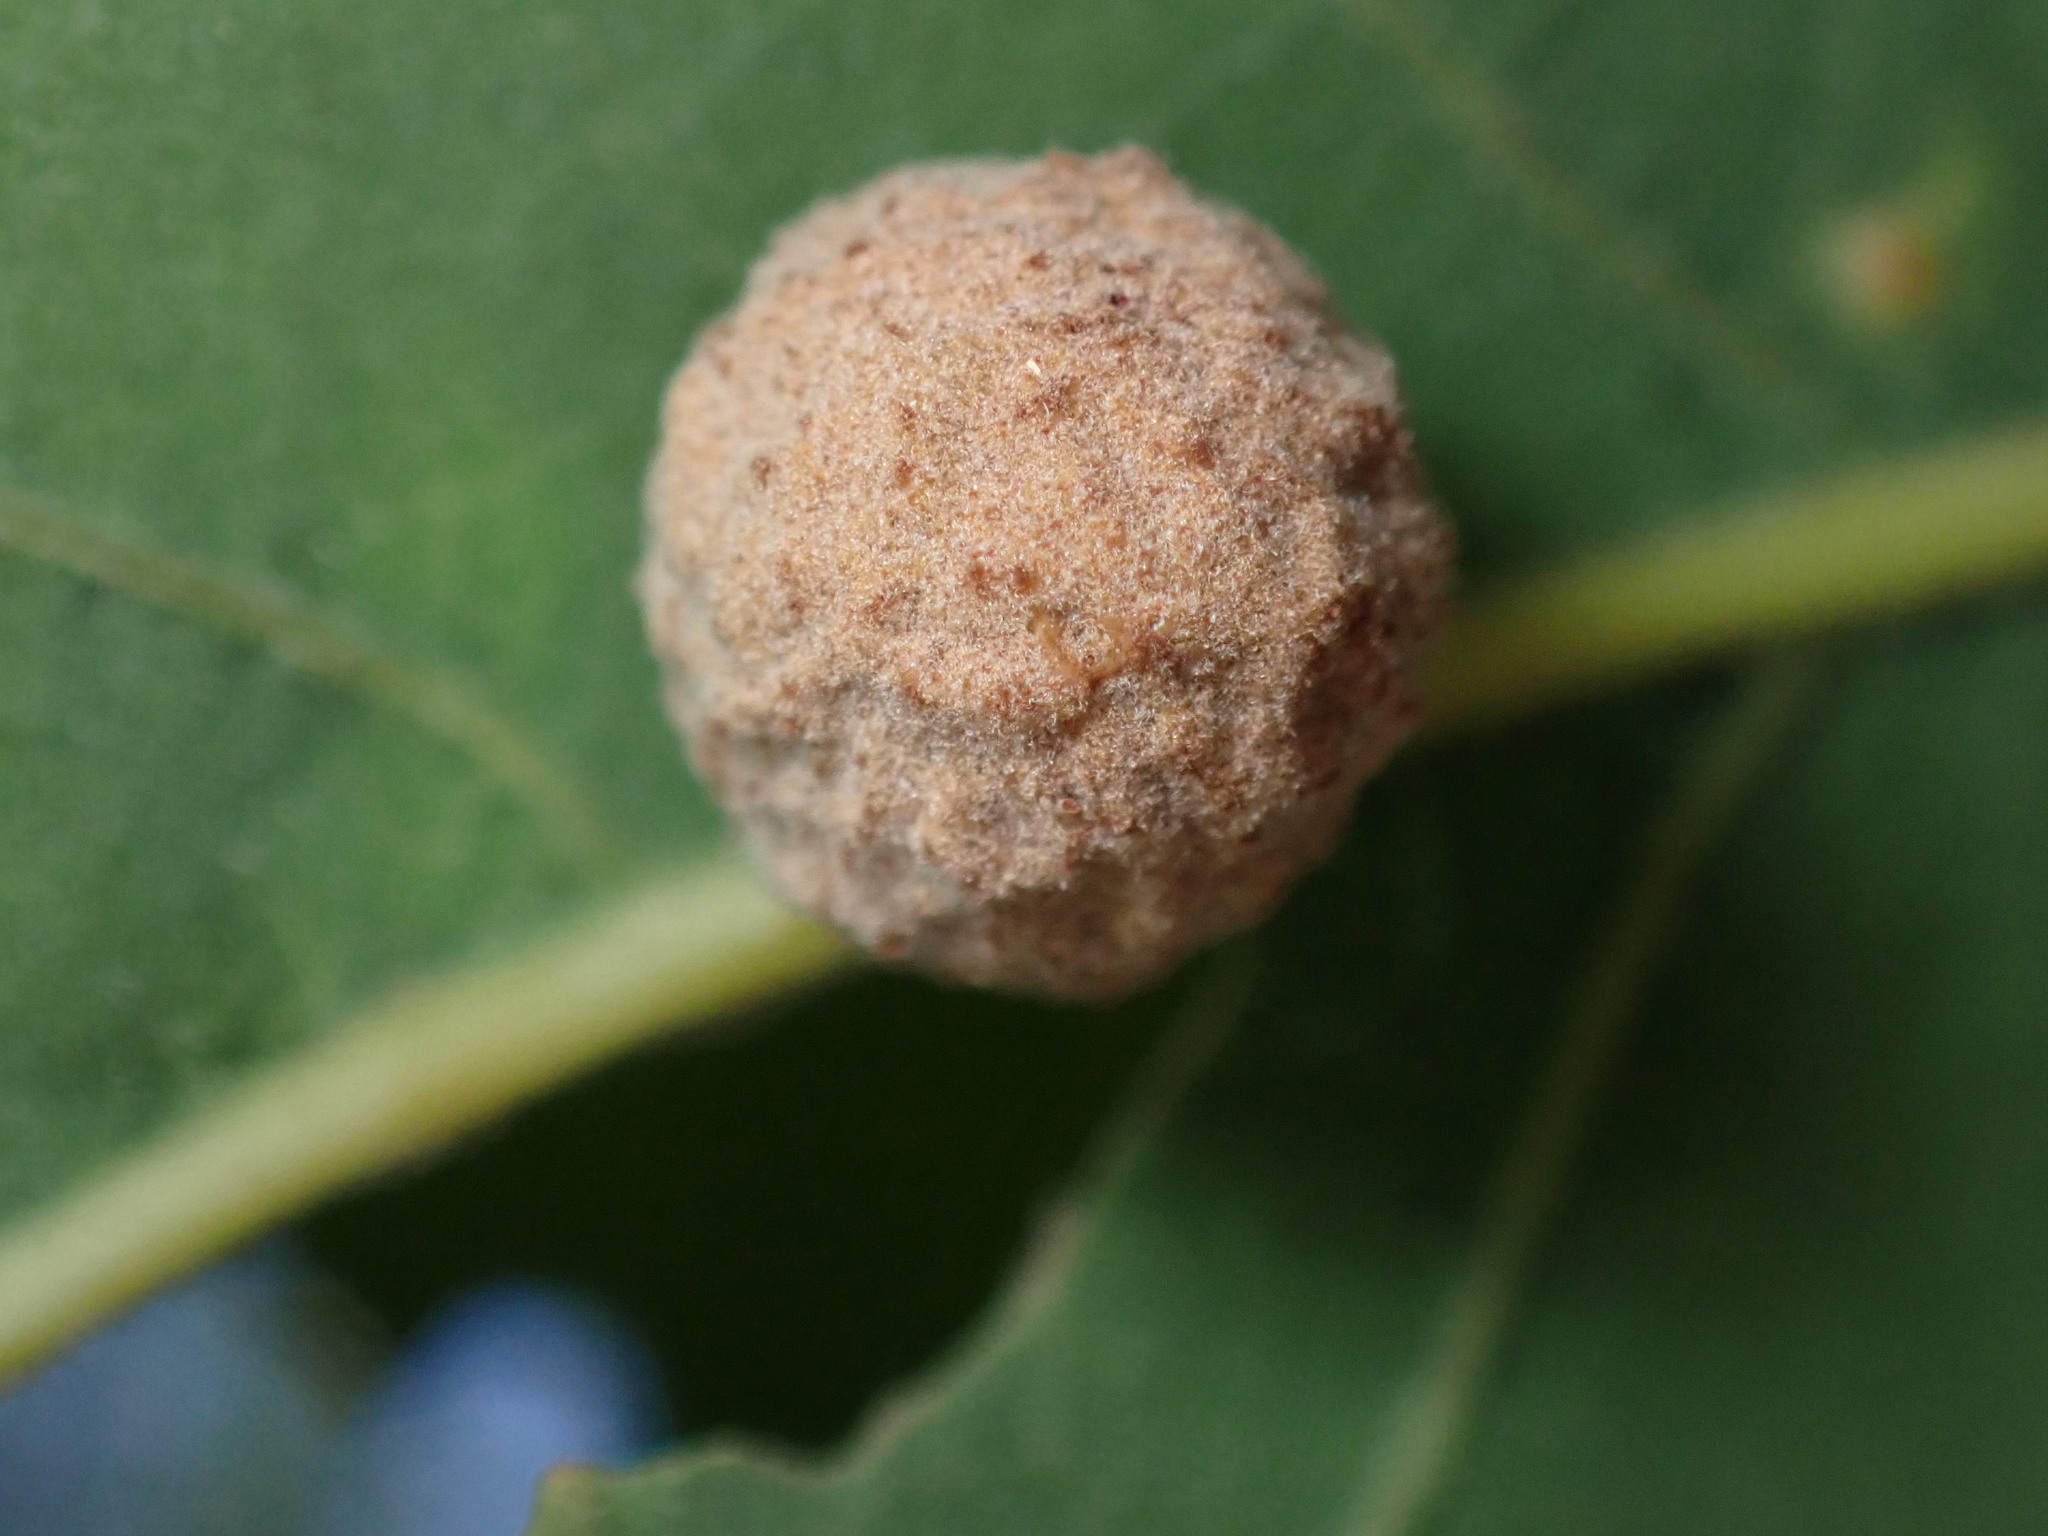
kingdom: Animalia
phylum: Arthropoda
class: Insecta
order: Hymenoptera
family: Cynipidae
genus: Cynips
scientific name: Cynips conspicua
